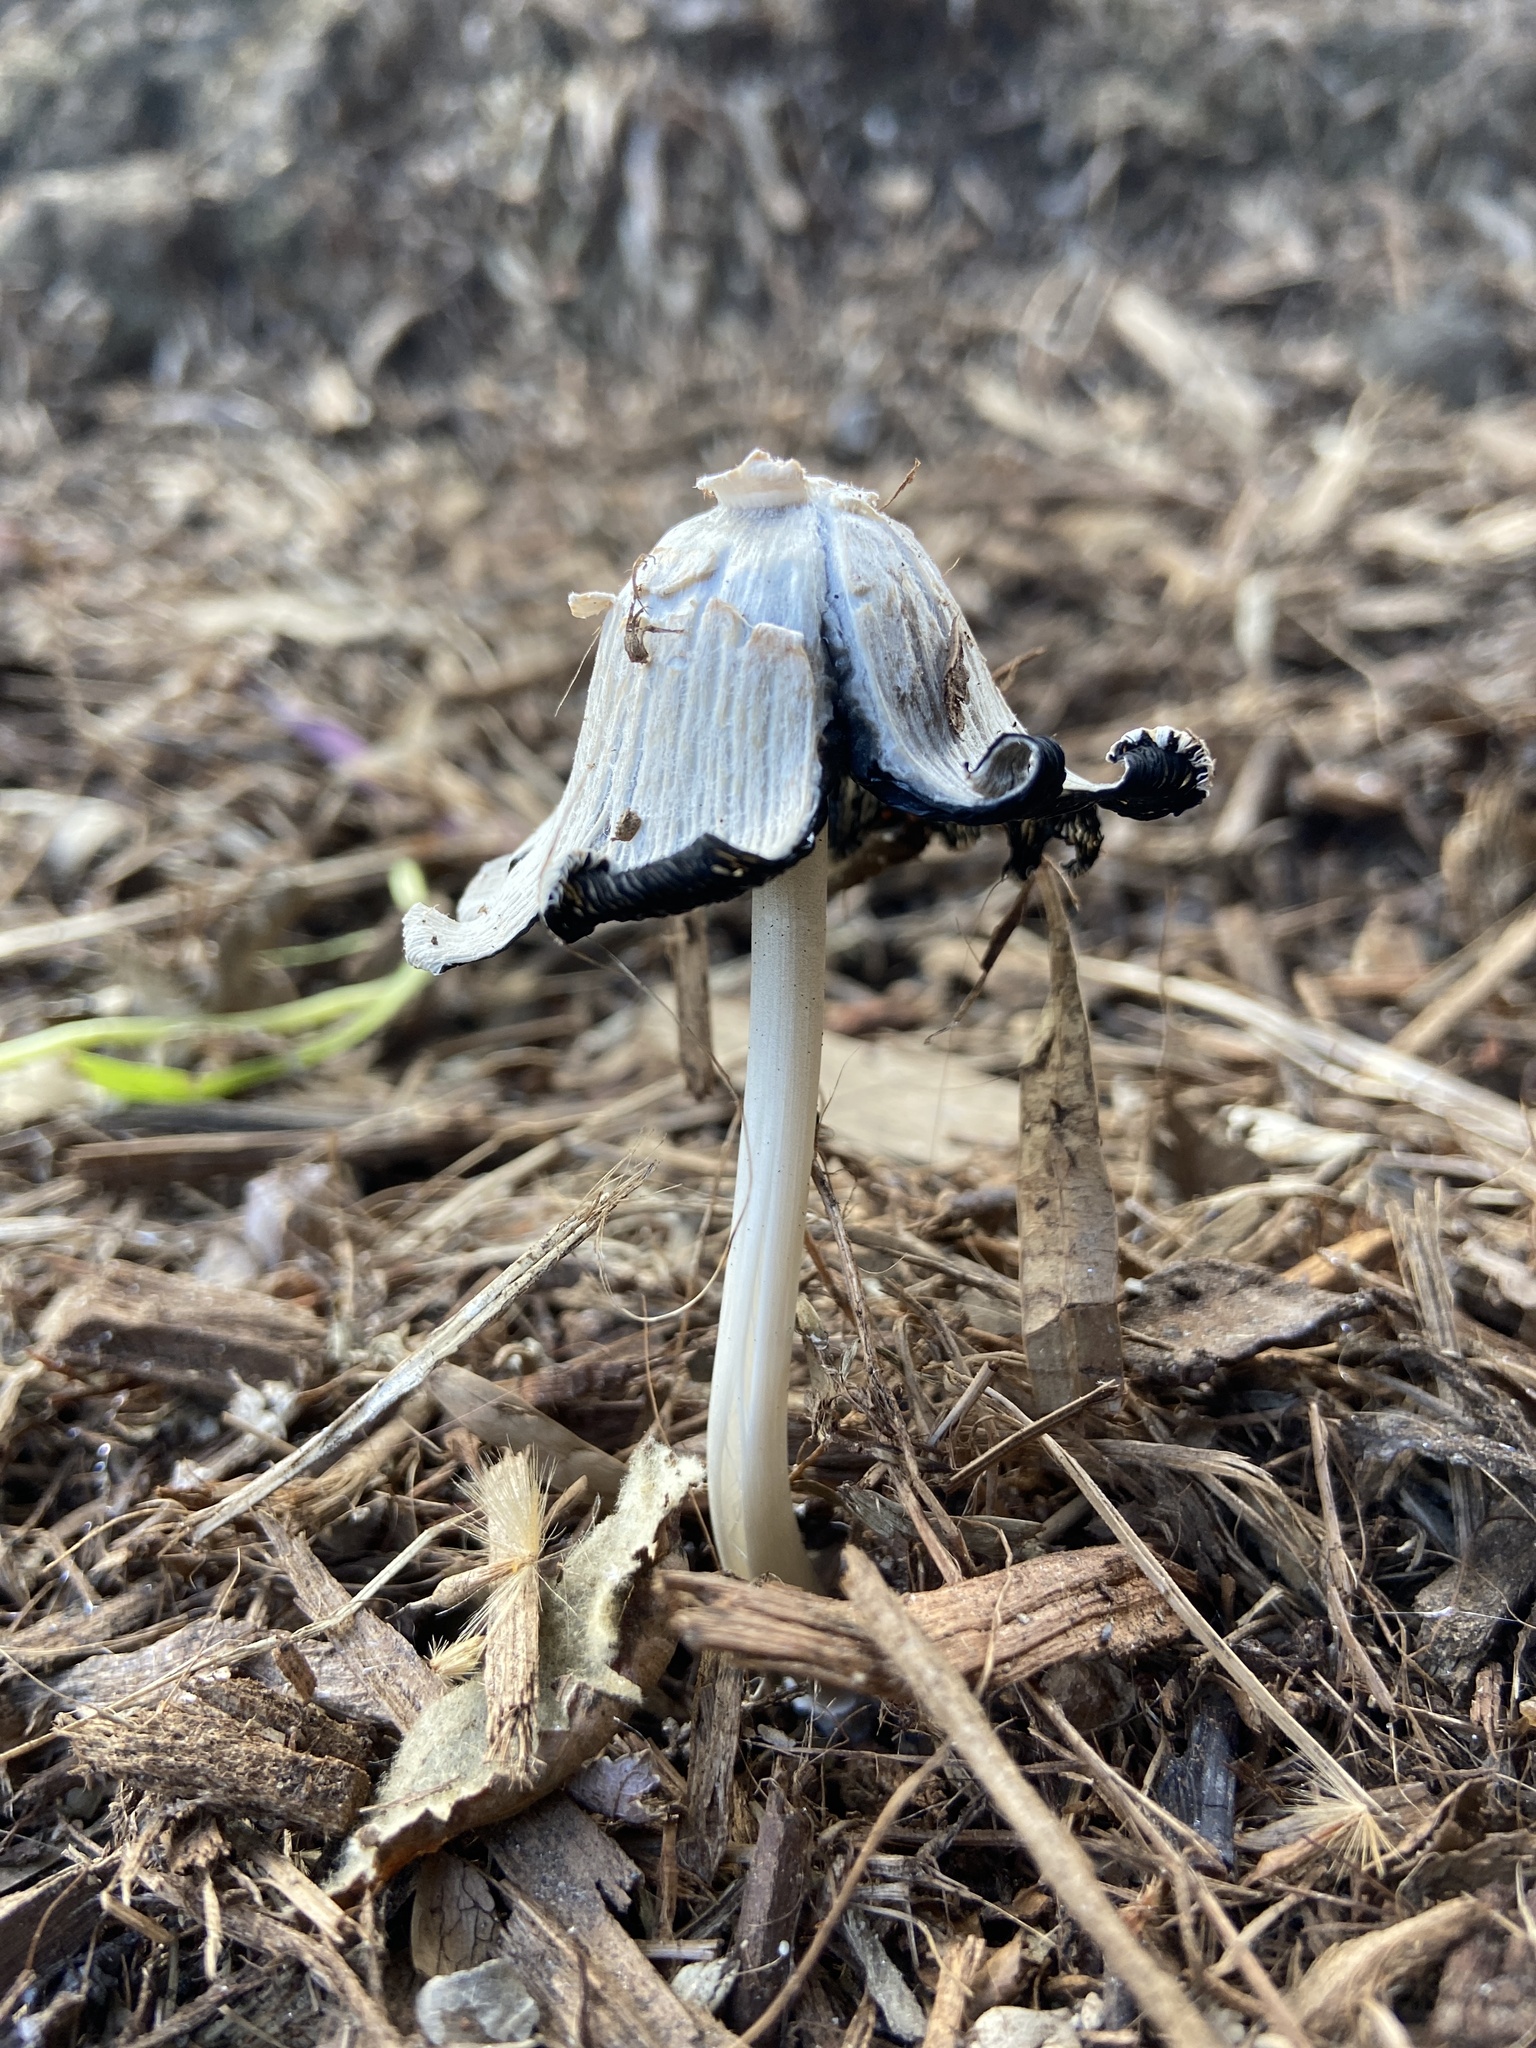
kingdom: Fungi
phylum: Basidiomycota
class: Agaricomycetes
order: Agaricales
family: Psathyrellaceae
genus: Coprinellus
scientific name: Coprinellus flocculosus
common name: Flocculose inkcap
